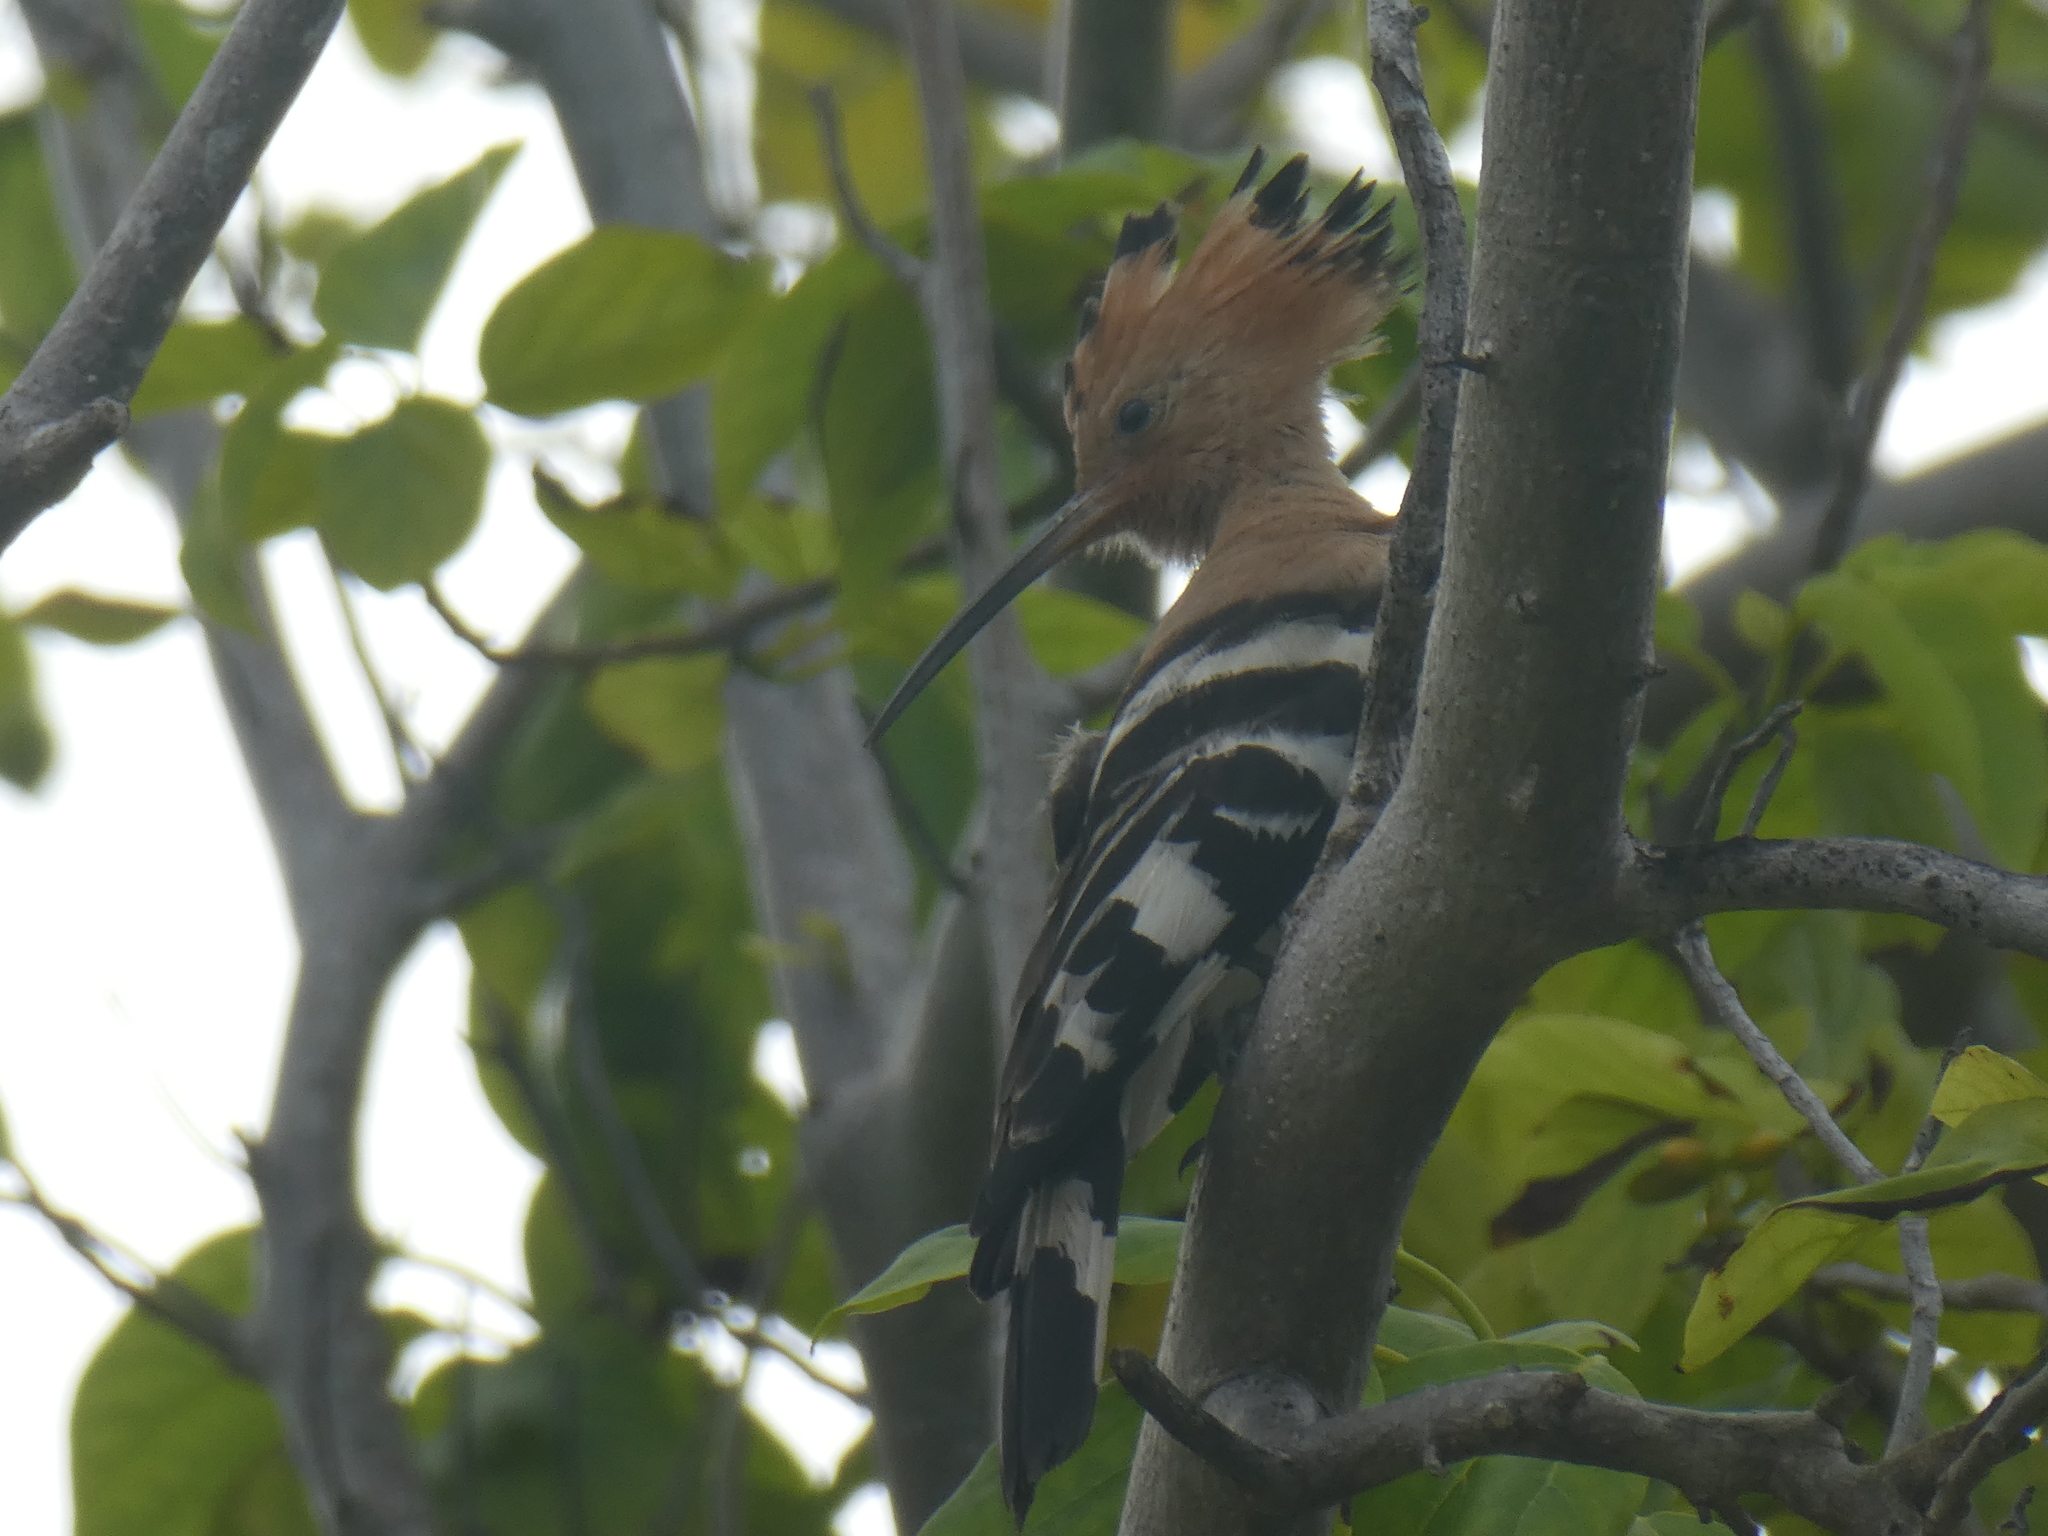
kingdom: Animalia
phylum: Chordata
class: Aves
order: Bucerotiformes
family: Upupidae
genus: Upupa
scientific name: Upupa epops
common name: Eurasian hoopoe
